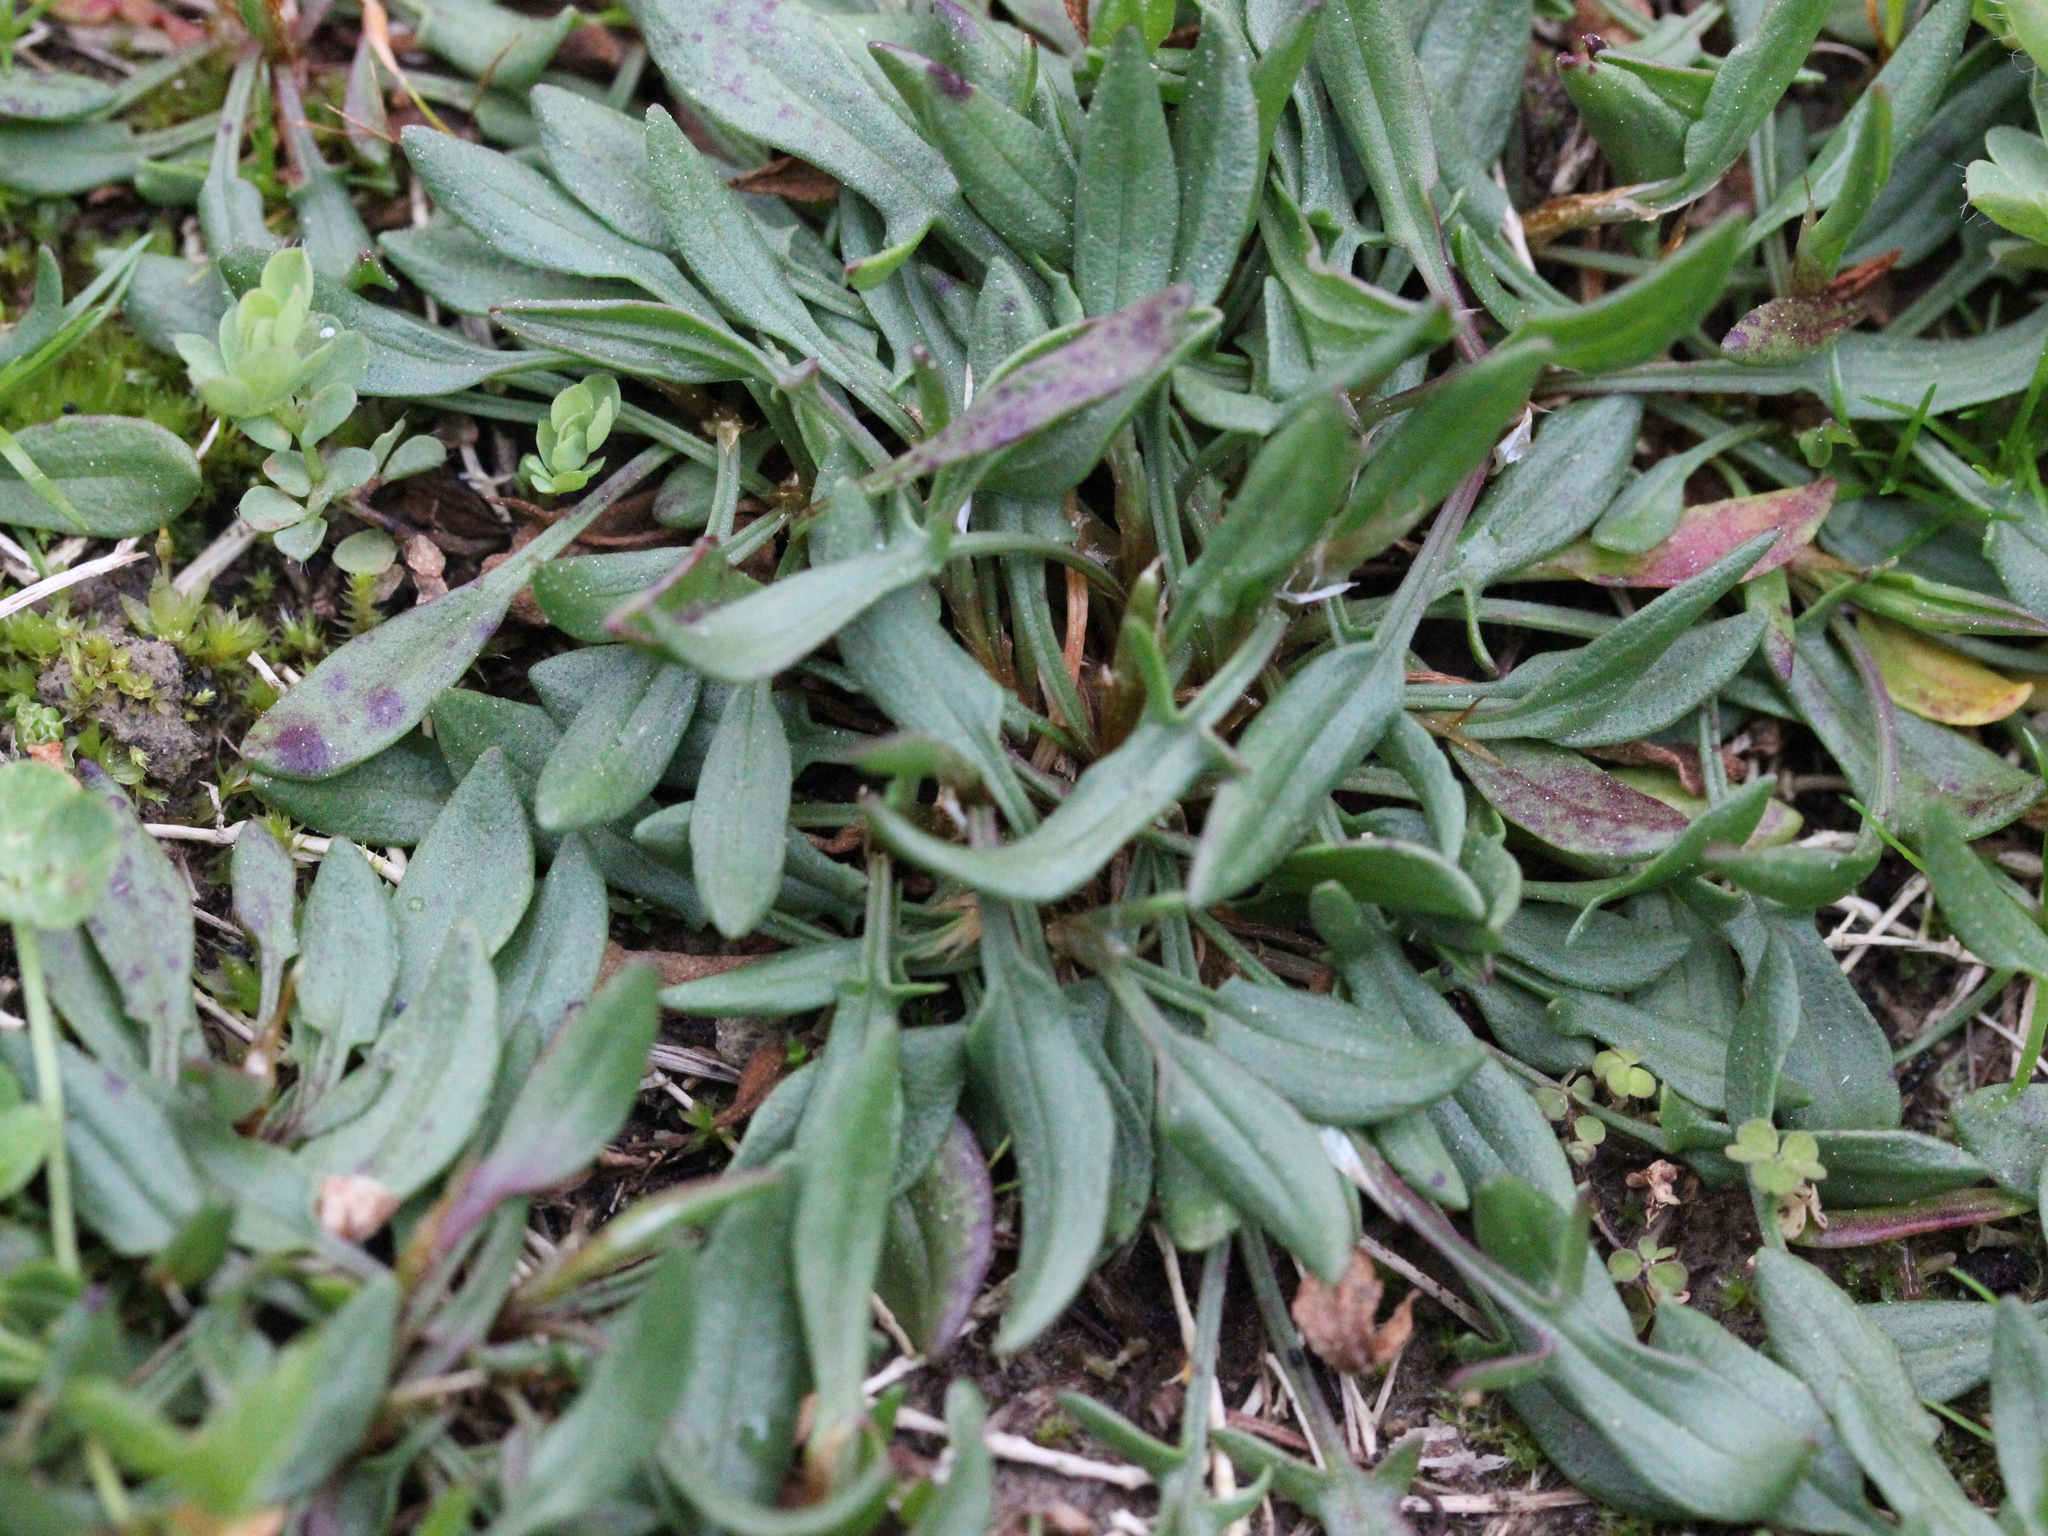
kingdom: Plantae
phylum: Tracheophyta
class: Magnoliopsida
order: Caryophyllales
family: Polygonaceae
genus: Rumex
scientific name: Rumex acetosella
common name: Common sheep sorrel
